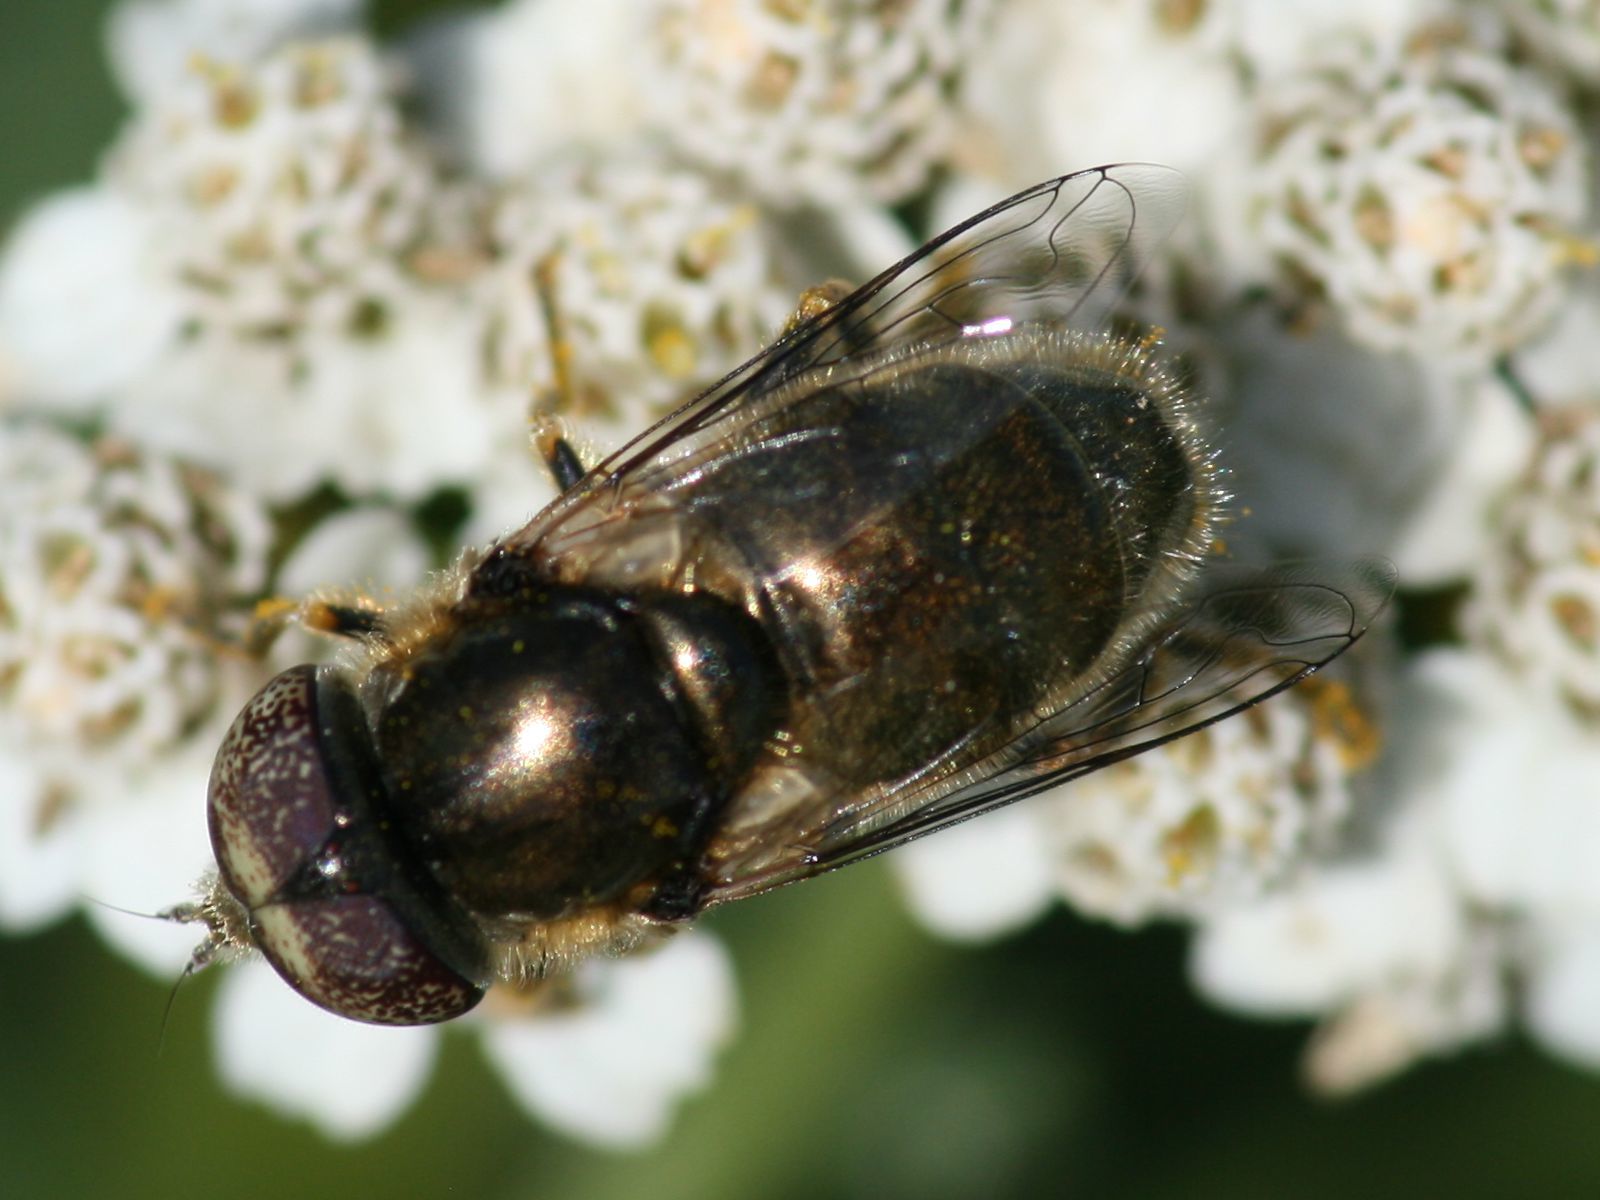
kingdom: Animalia
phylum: Arthropoda
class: Insecta
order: Diptera
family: Syrphidae
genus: Eristalinus
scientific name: Eristalinus aeneus
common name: Syrphid fly
